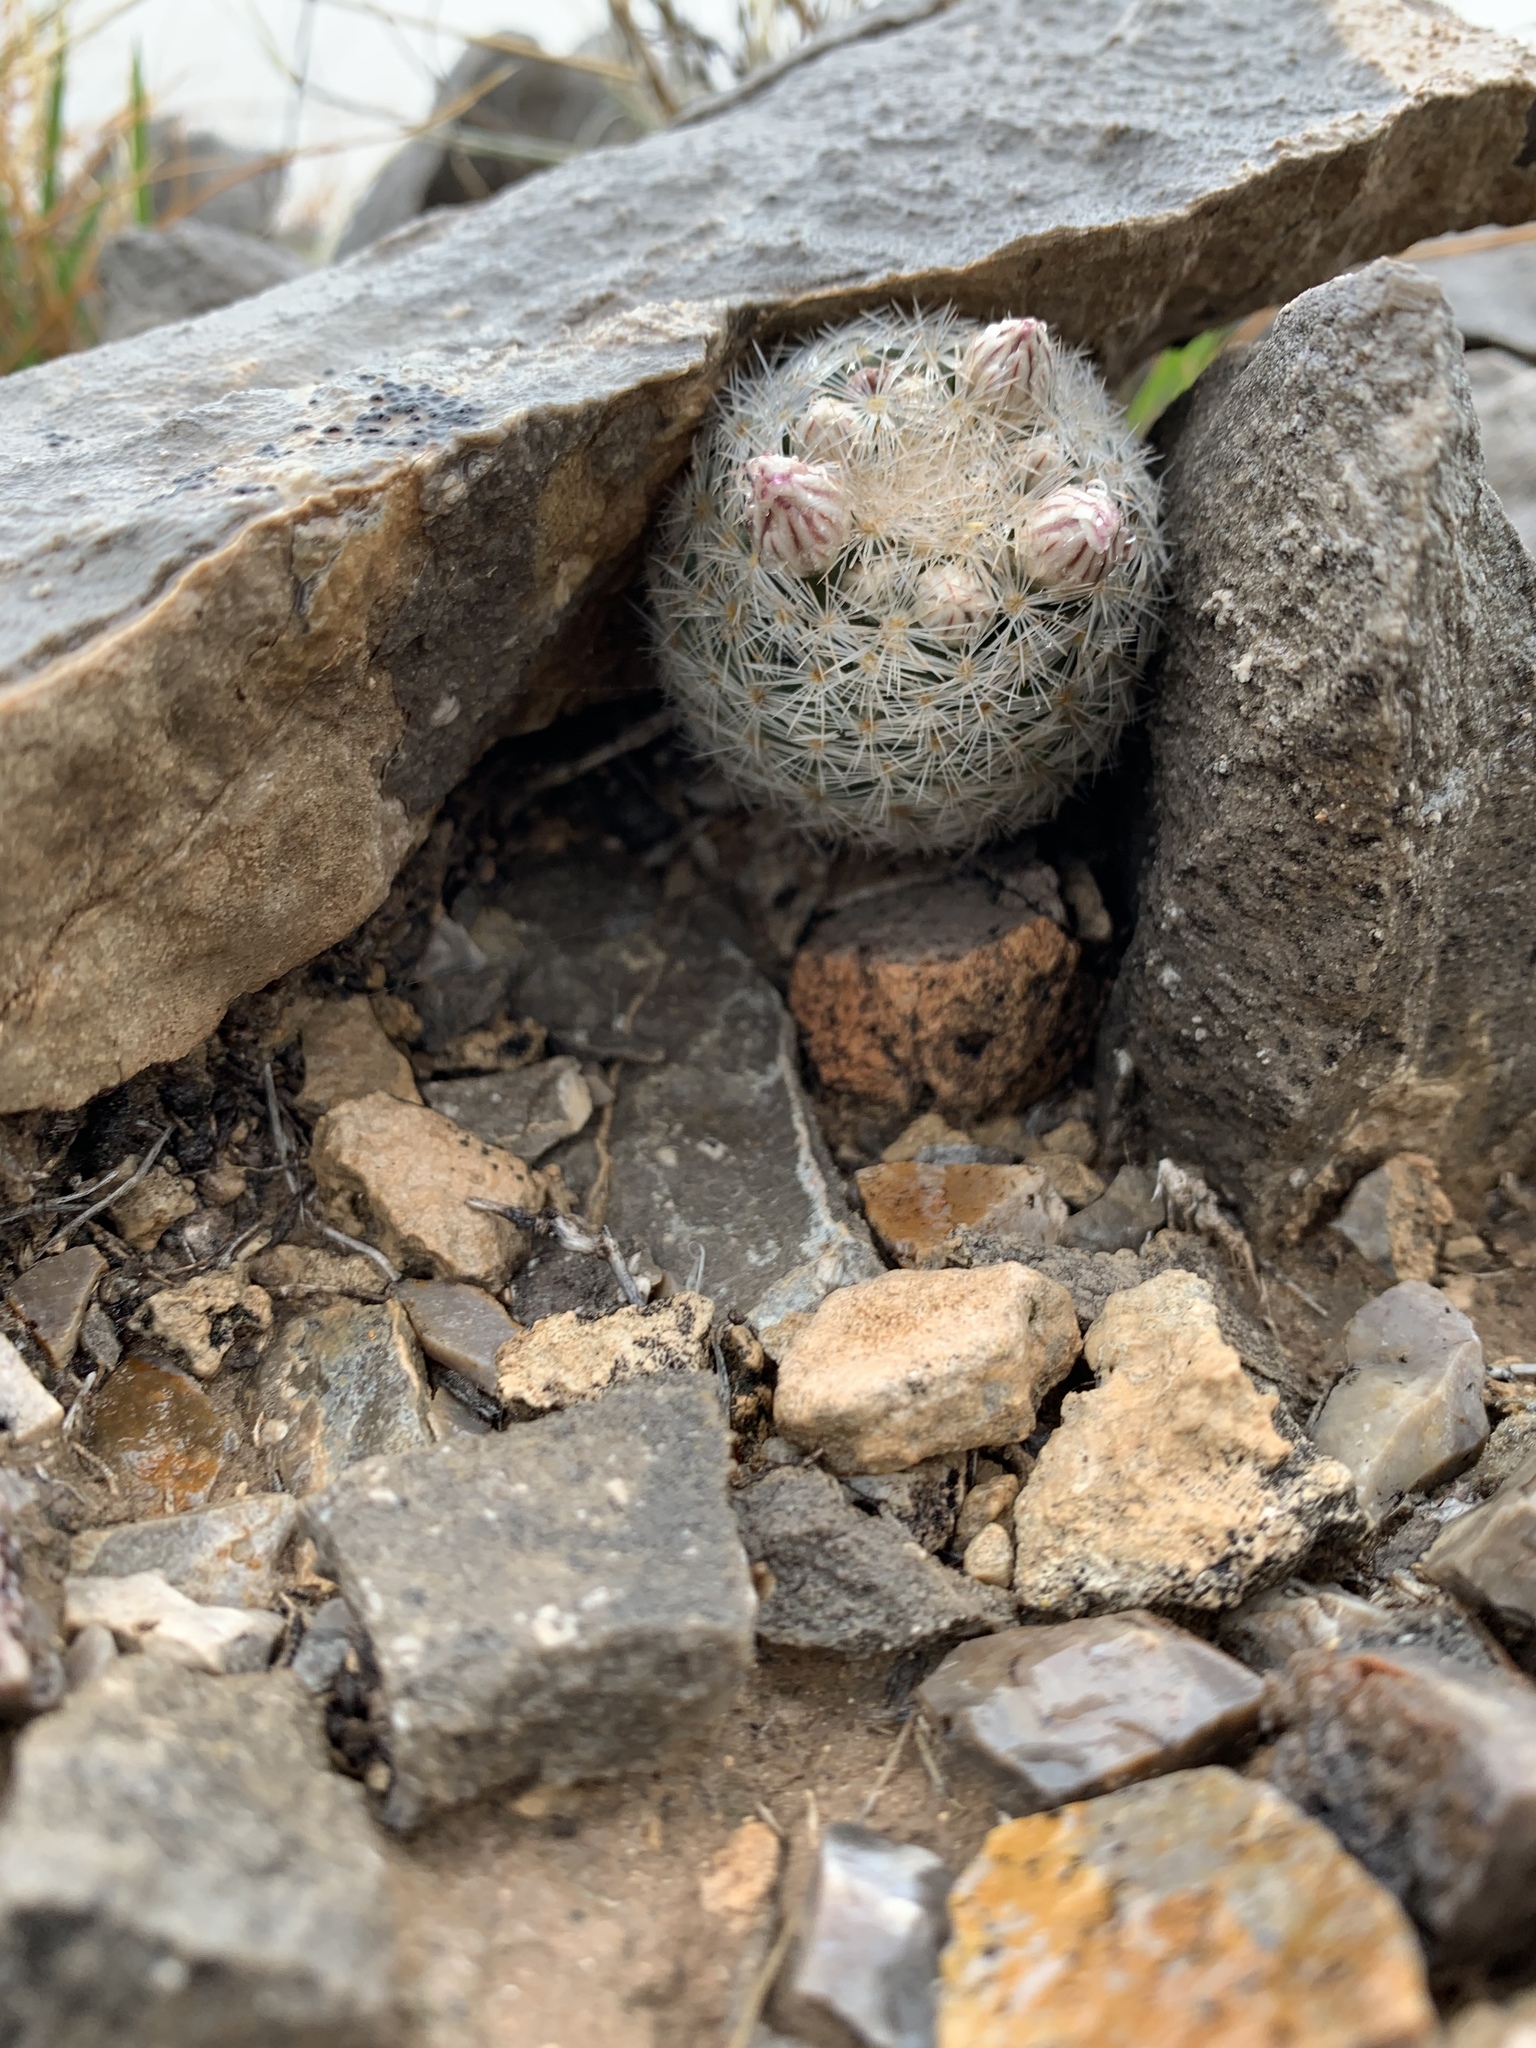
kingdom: Plantae
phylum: Tracheophyta
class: Magnoliopsida
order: Caryophyllales
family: Cactaceae
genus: Mammillaria
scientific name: Mammillaria lasiacantha
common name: Lace-spine nipple cactus
